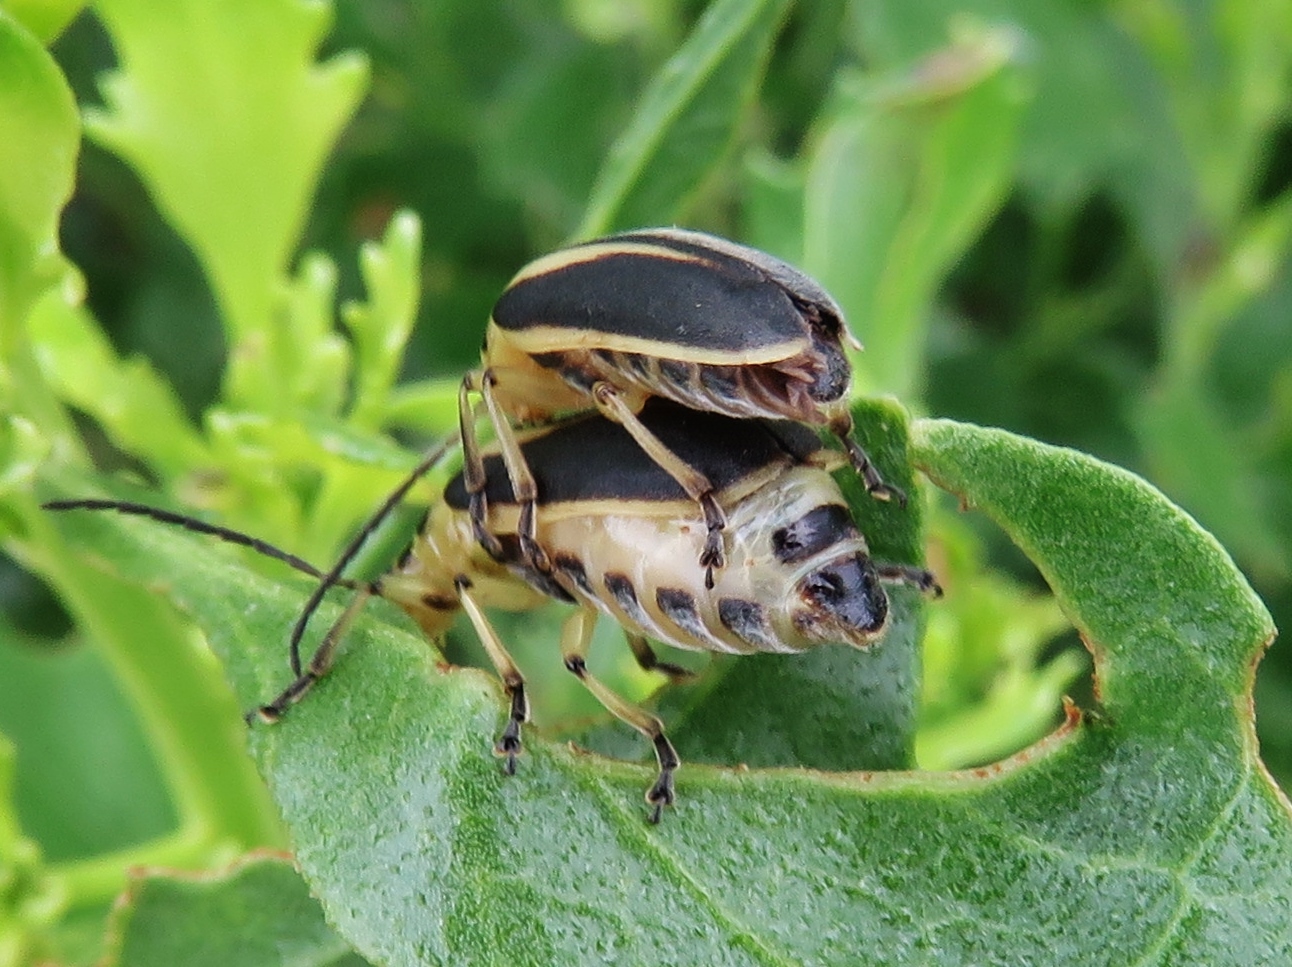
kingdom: Animalia
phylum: Arthropoda
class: Insecta
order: Coleoptera
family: Chrysomelidae
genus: Trirhabda
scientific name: Trirhabda bacharidis
